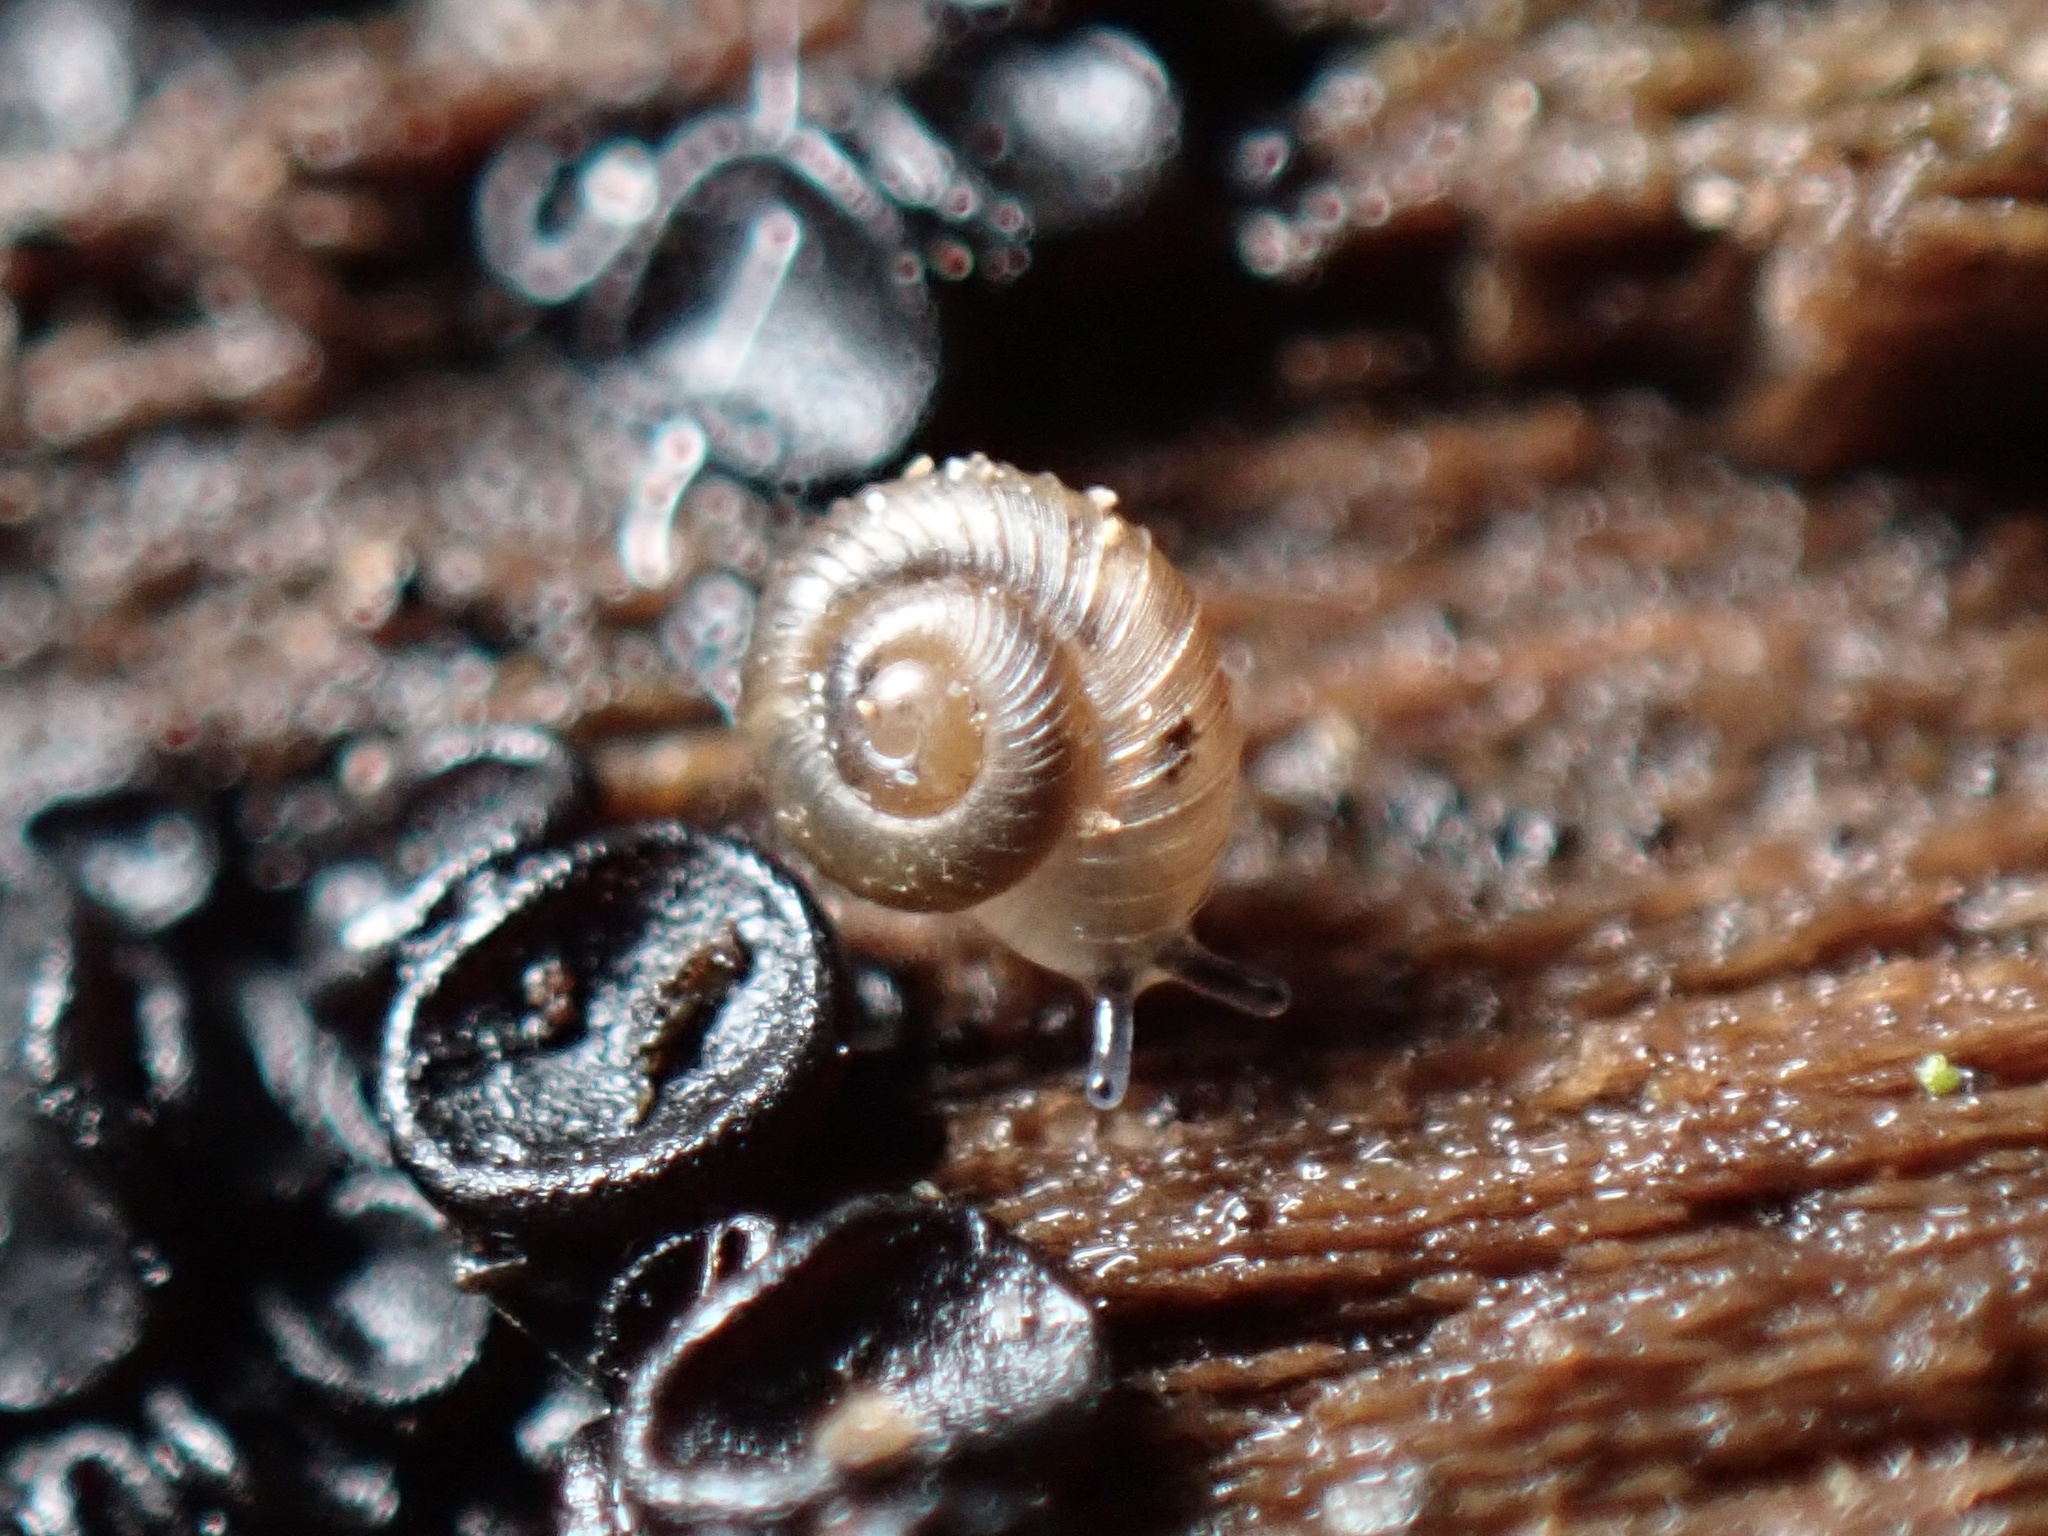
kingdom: Animalia
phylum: Mollusca
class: Gastropoda
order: Stylommatophora
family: Punctidae
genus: Paralaoma
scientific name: Paralaoma servilis
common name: Pinhead spot
